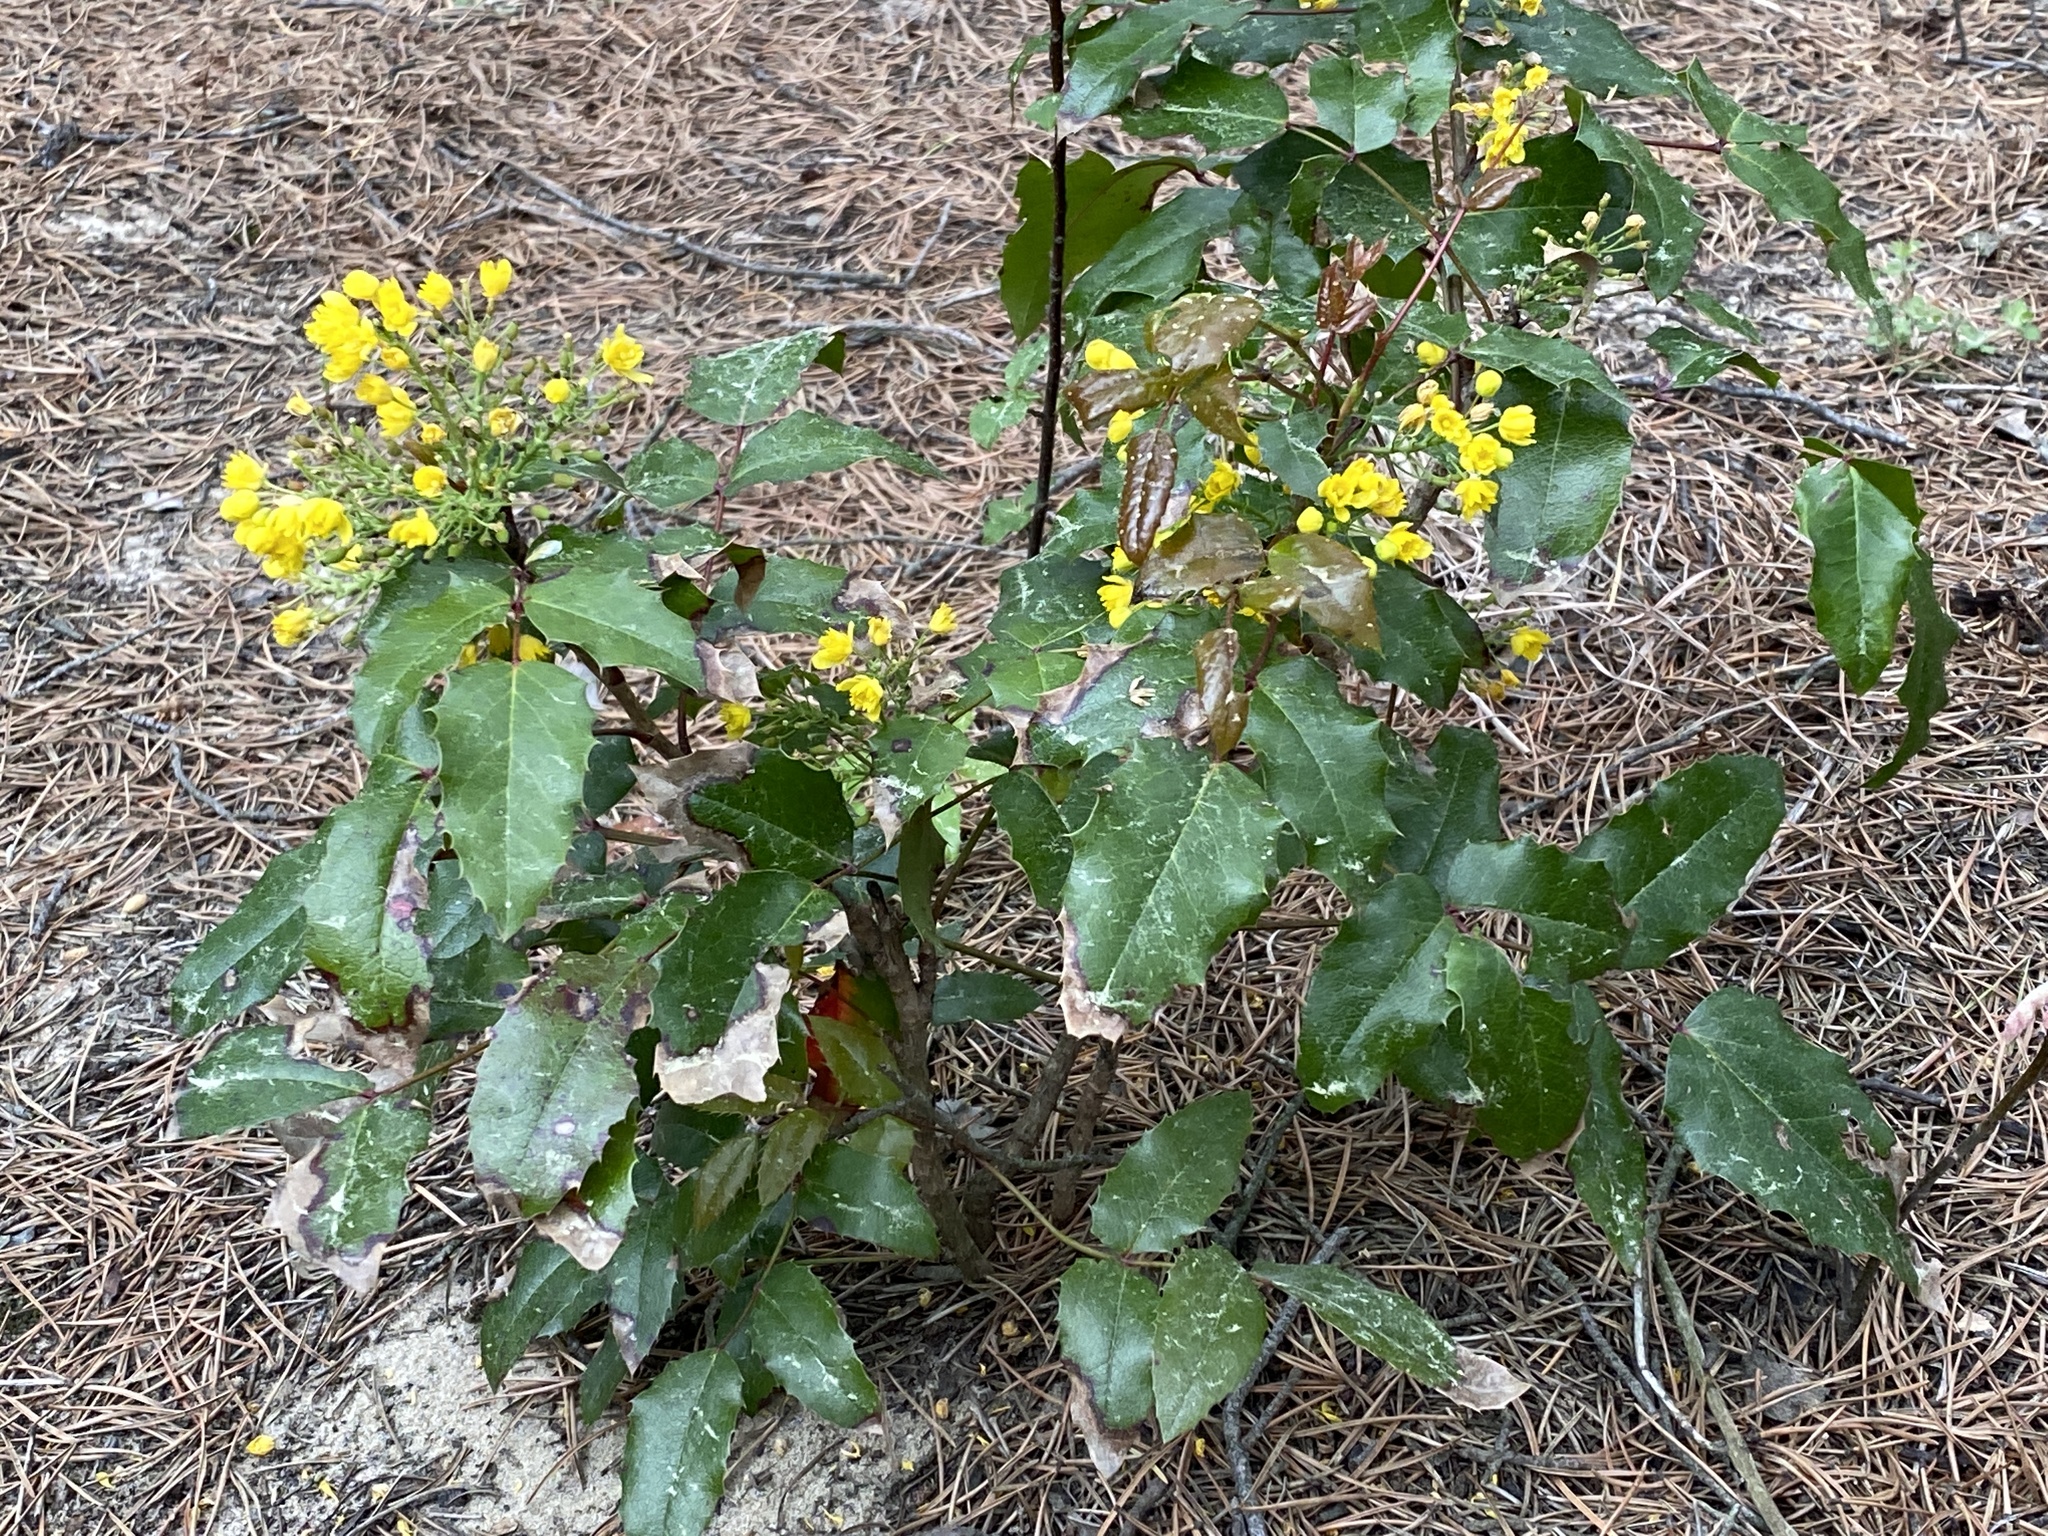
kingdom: Plantae
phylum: Tracheophyta
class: Magnoliopsida
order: Ranunculales
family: Berberidaceae
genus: Mahonia
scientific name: Mahonia aquifolium
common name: Oregon-grape
